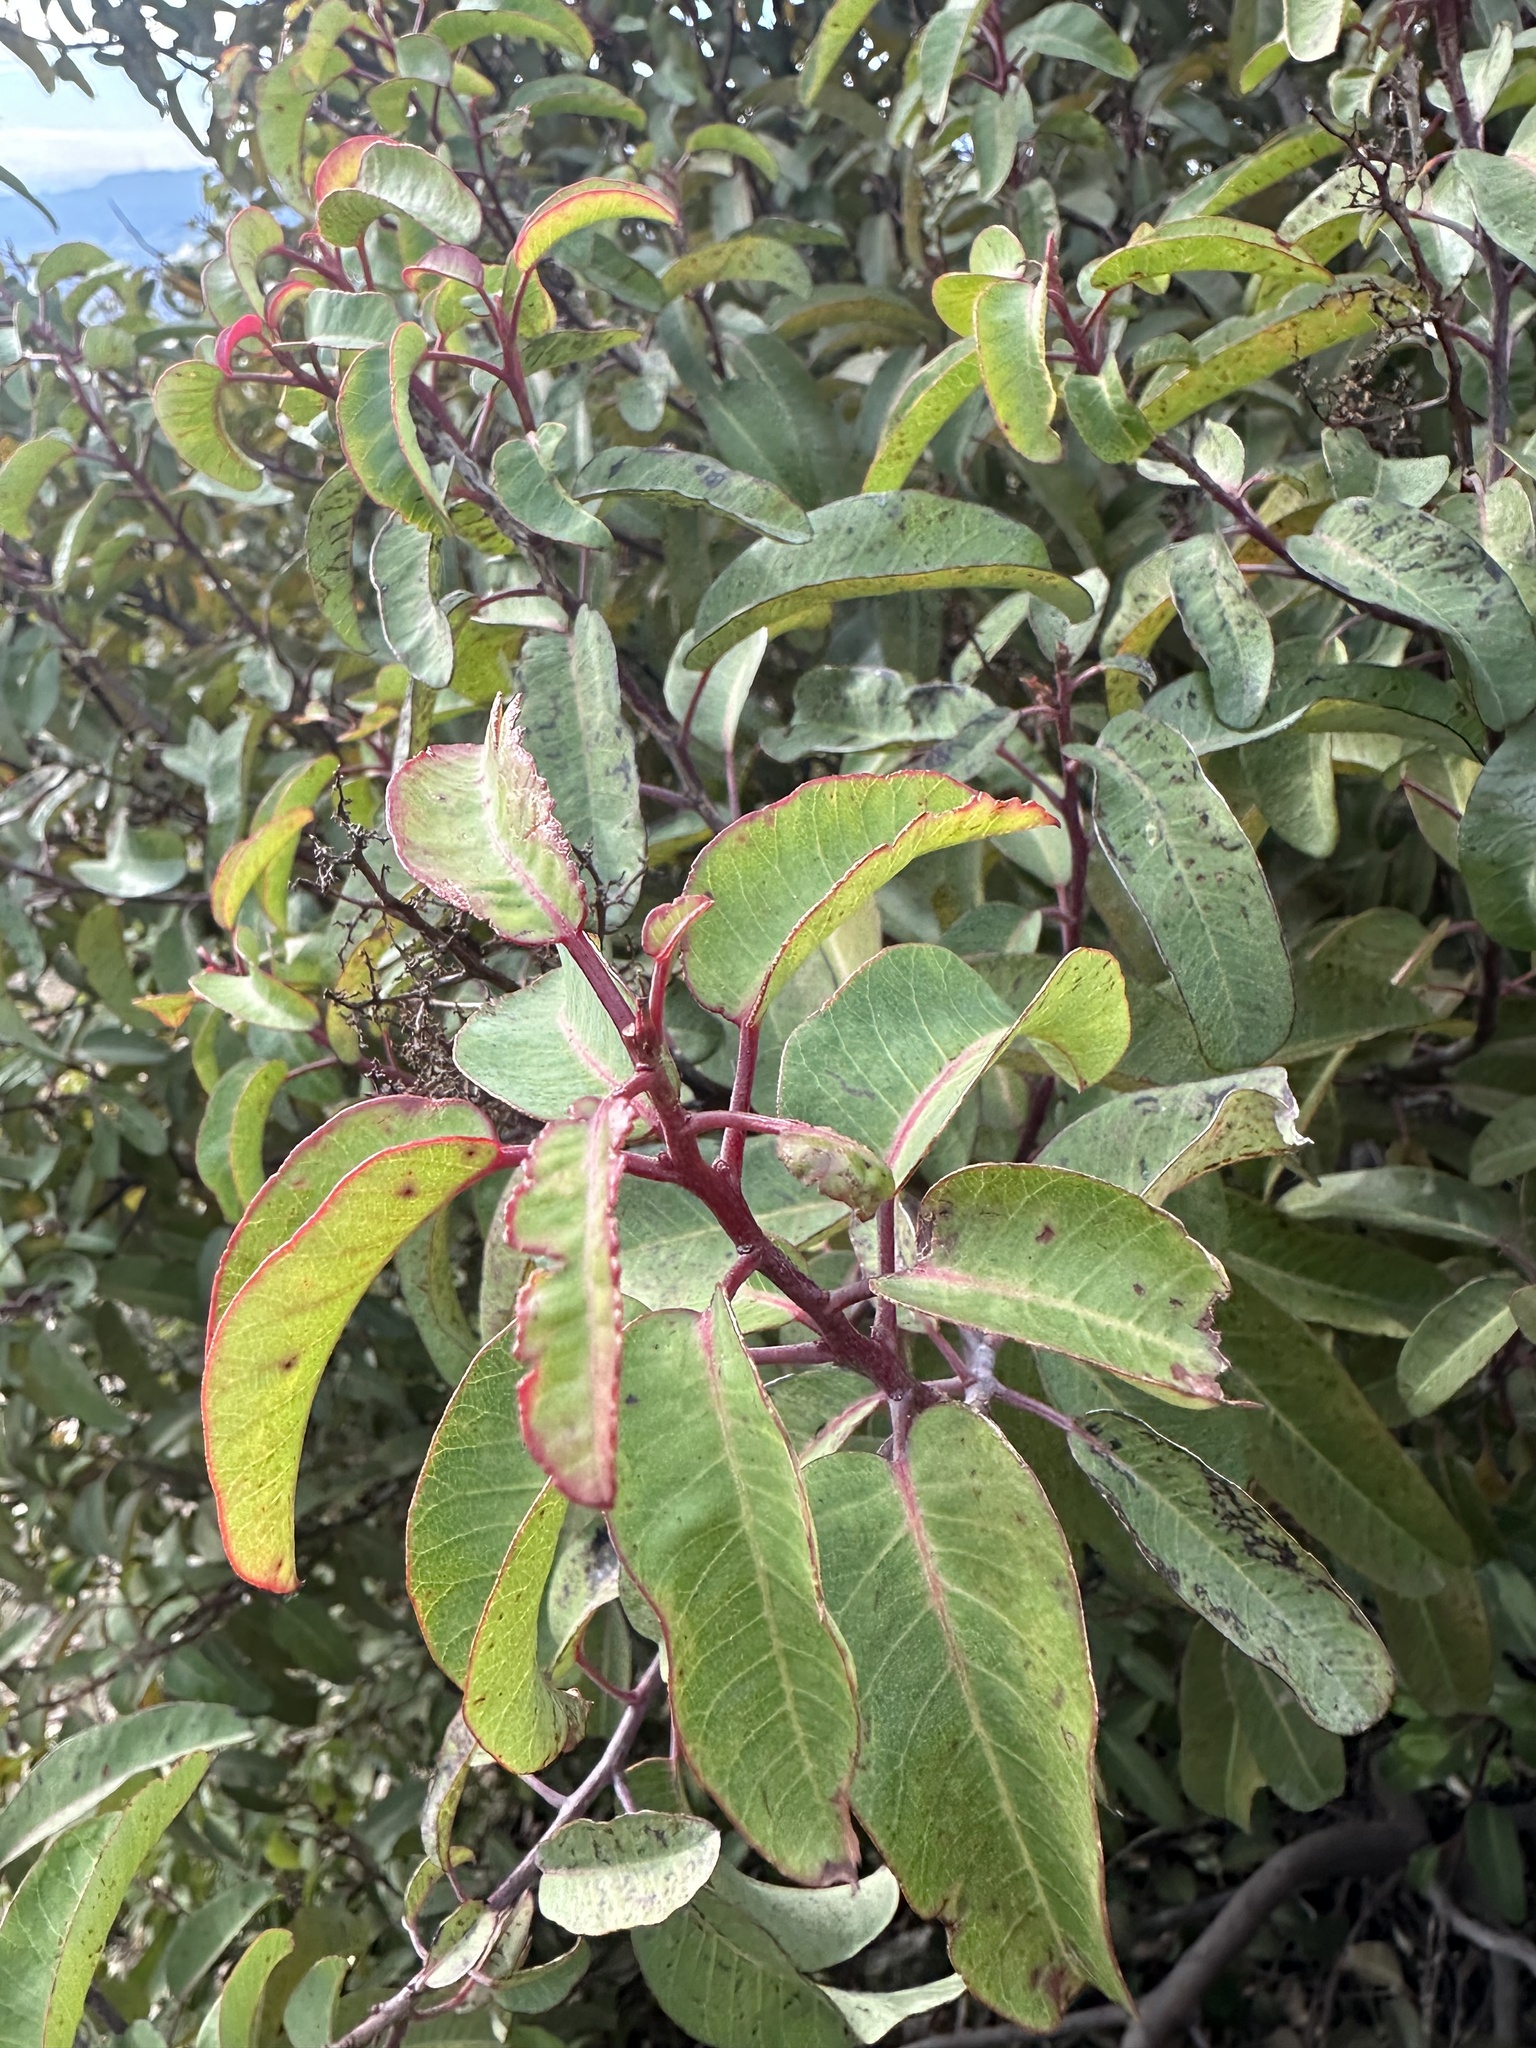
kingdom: Plantae
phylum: Tracheophyta
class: Magnoliopsida
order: Sapindales
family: Anacardiaceae
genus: Malosma
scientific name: Malosma laurina
